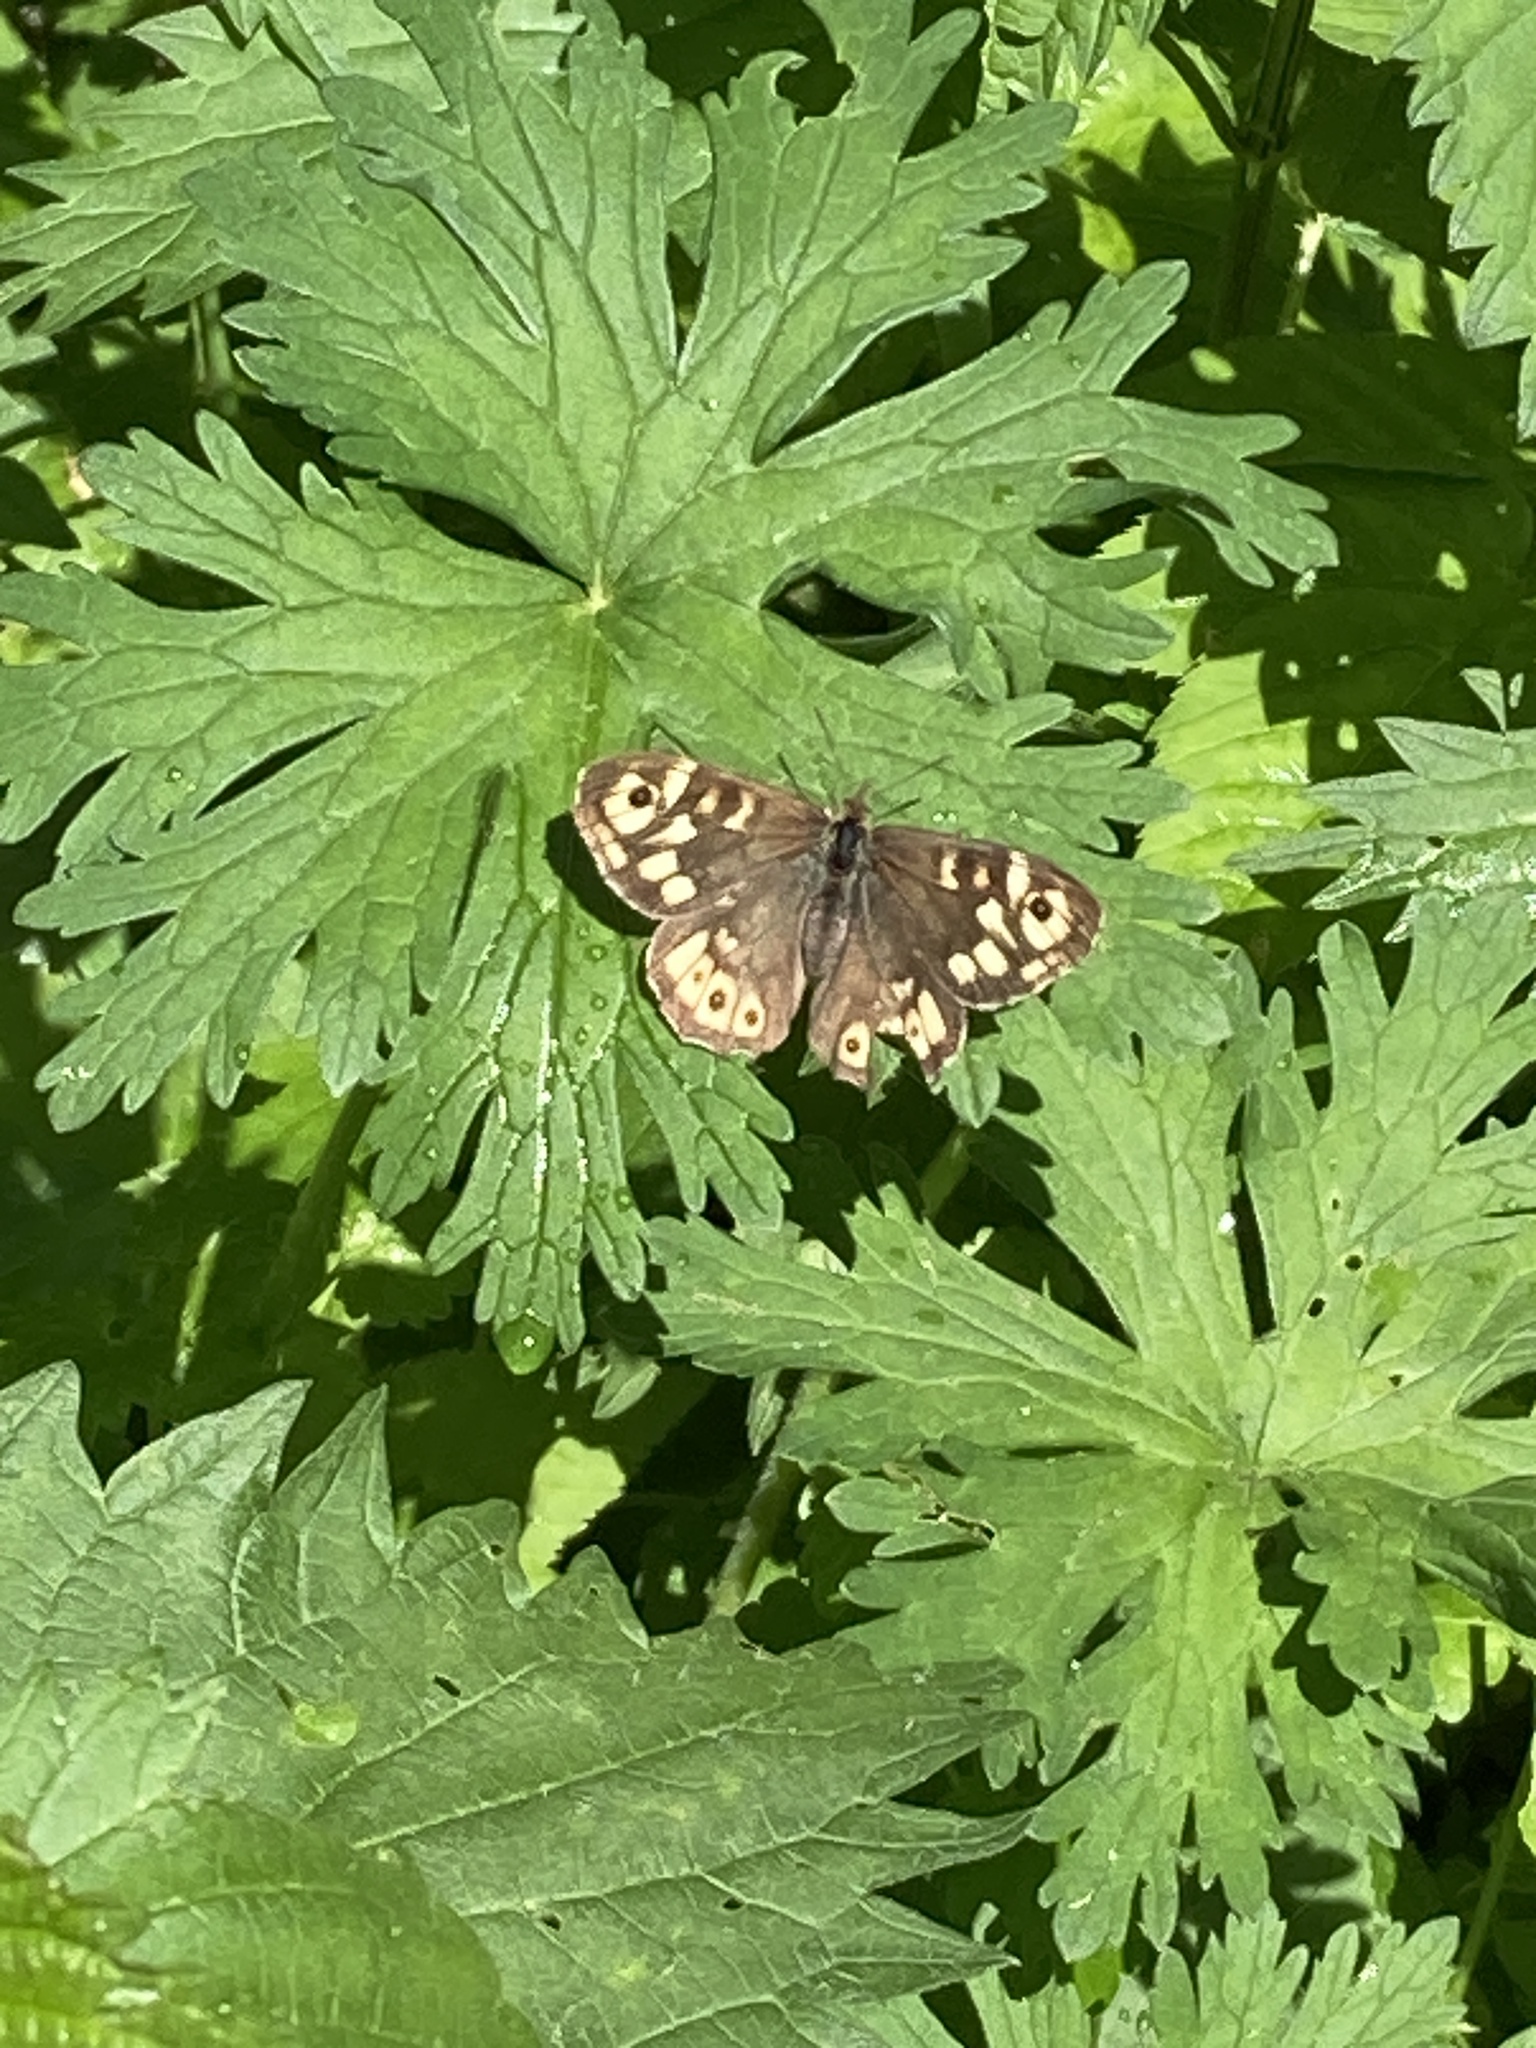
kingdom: Animalia
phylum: Arthropoda
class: Insecta
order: Lepidoptera
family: Nymphalidae
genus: Pararge
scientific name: Pararge aegeria
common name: Speckled wood
